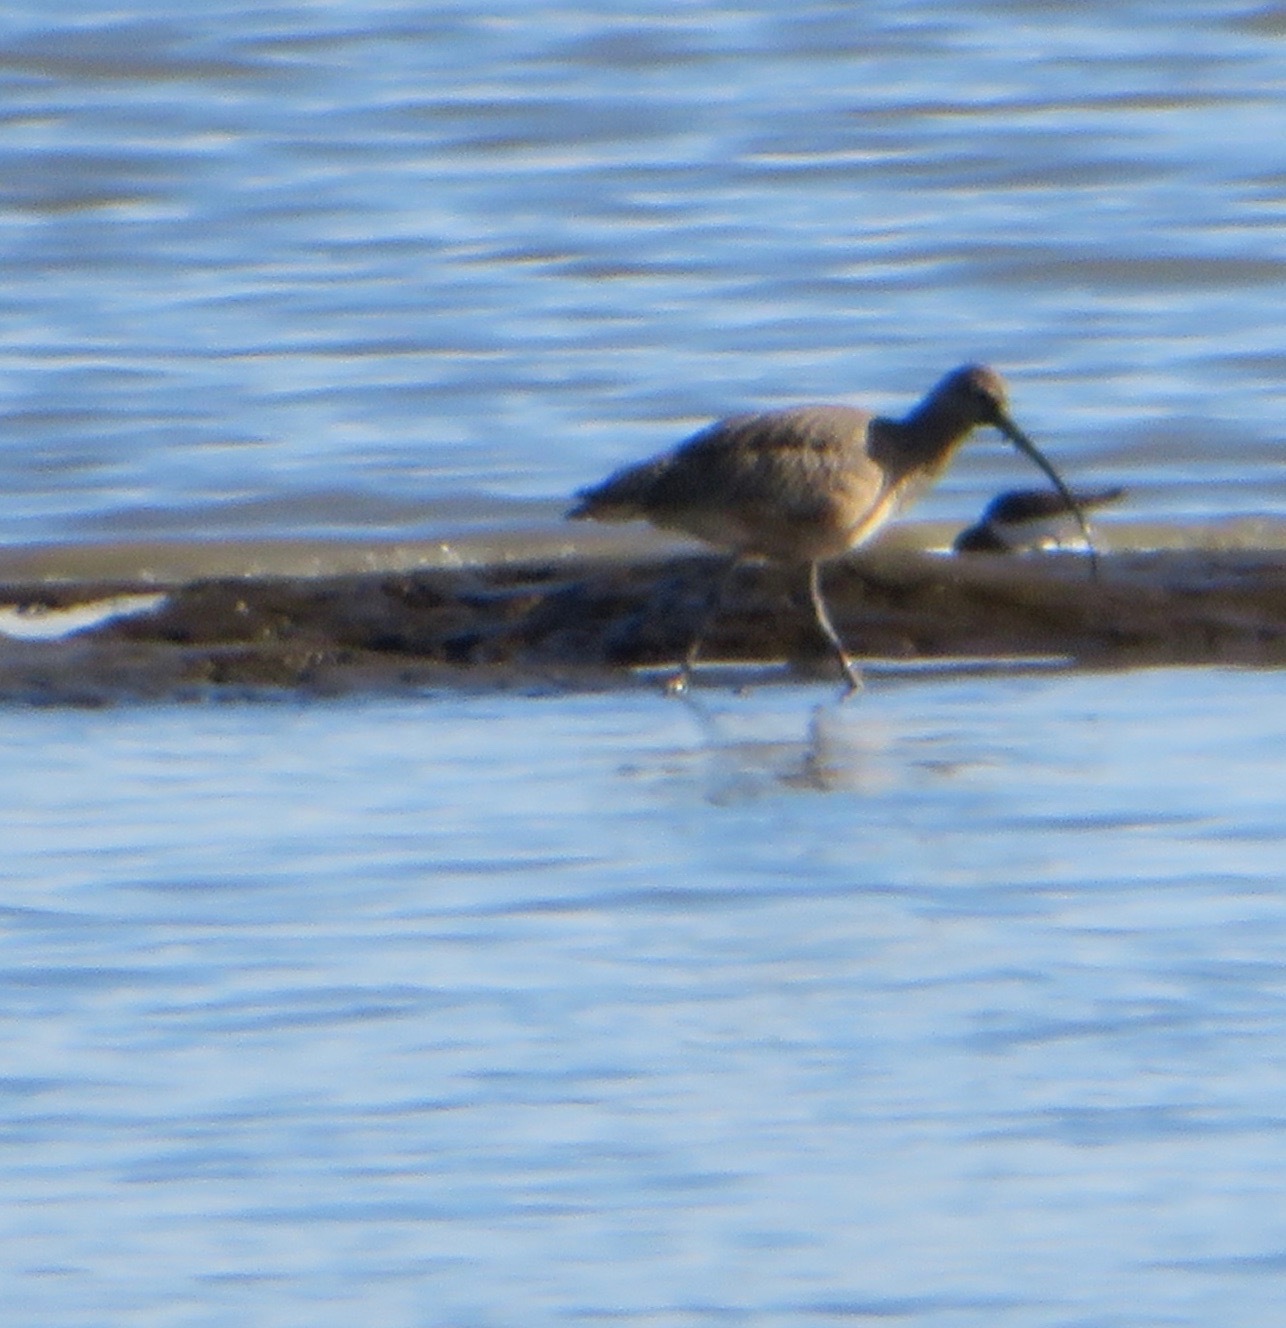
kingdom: Animalia
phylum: Chordata
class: Aves
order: Charadriiformes
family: Scolopacidae
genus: Numenius
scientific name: Numenius americanus
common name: Long-billed curlew
